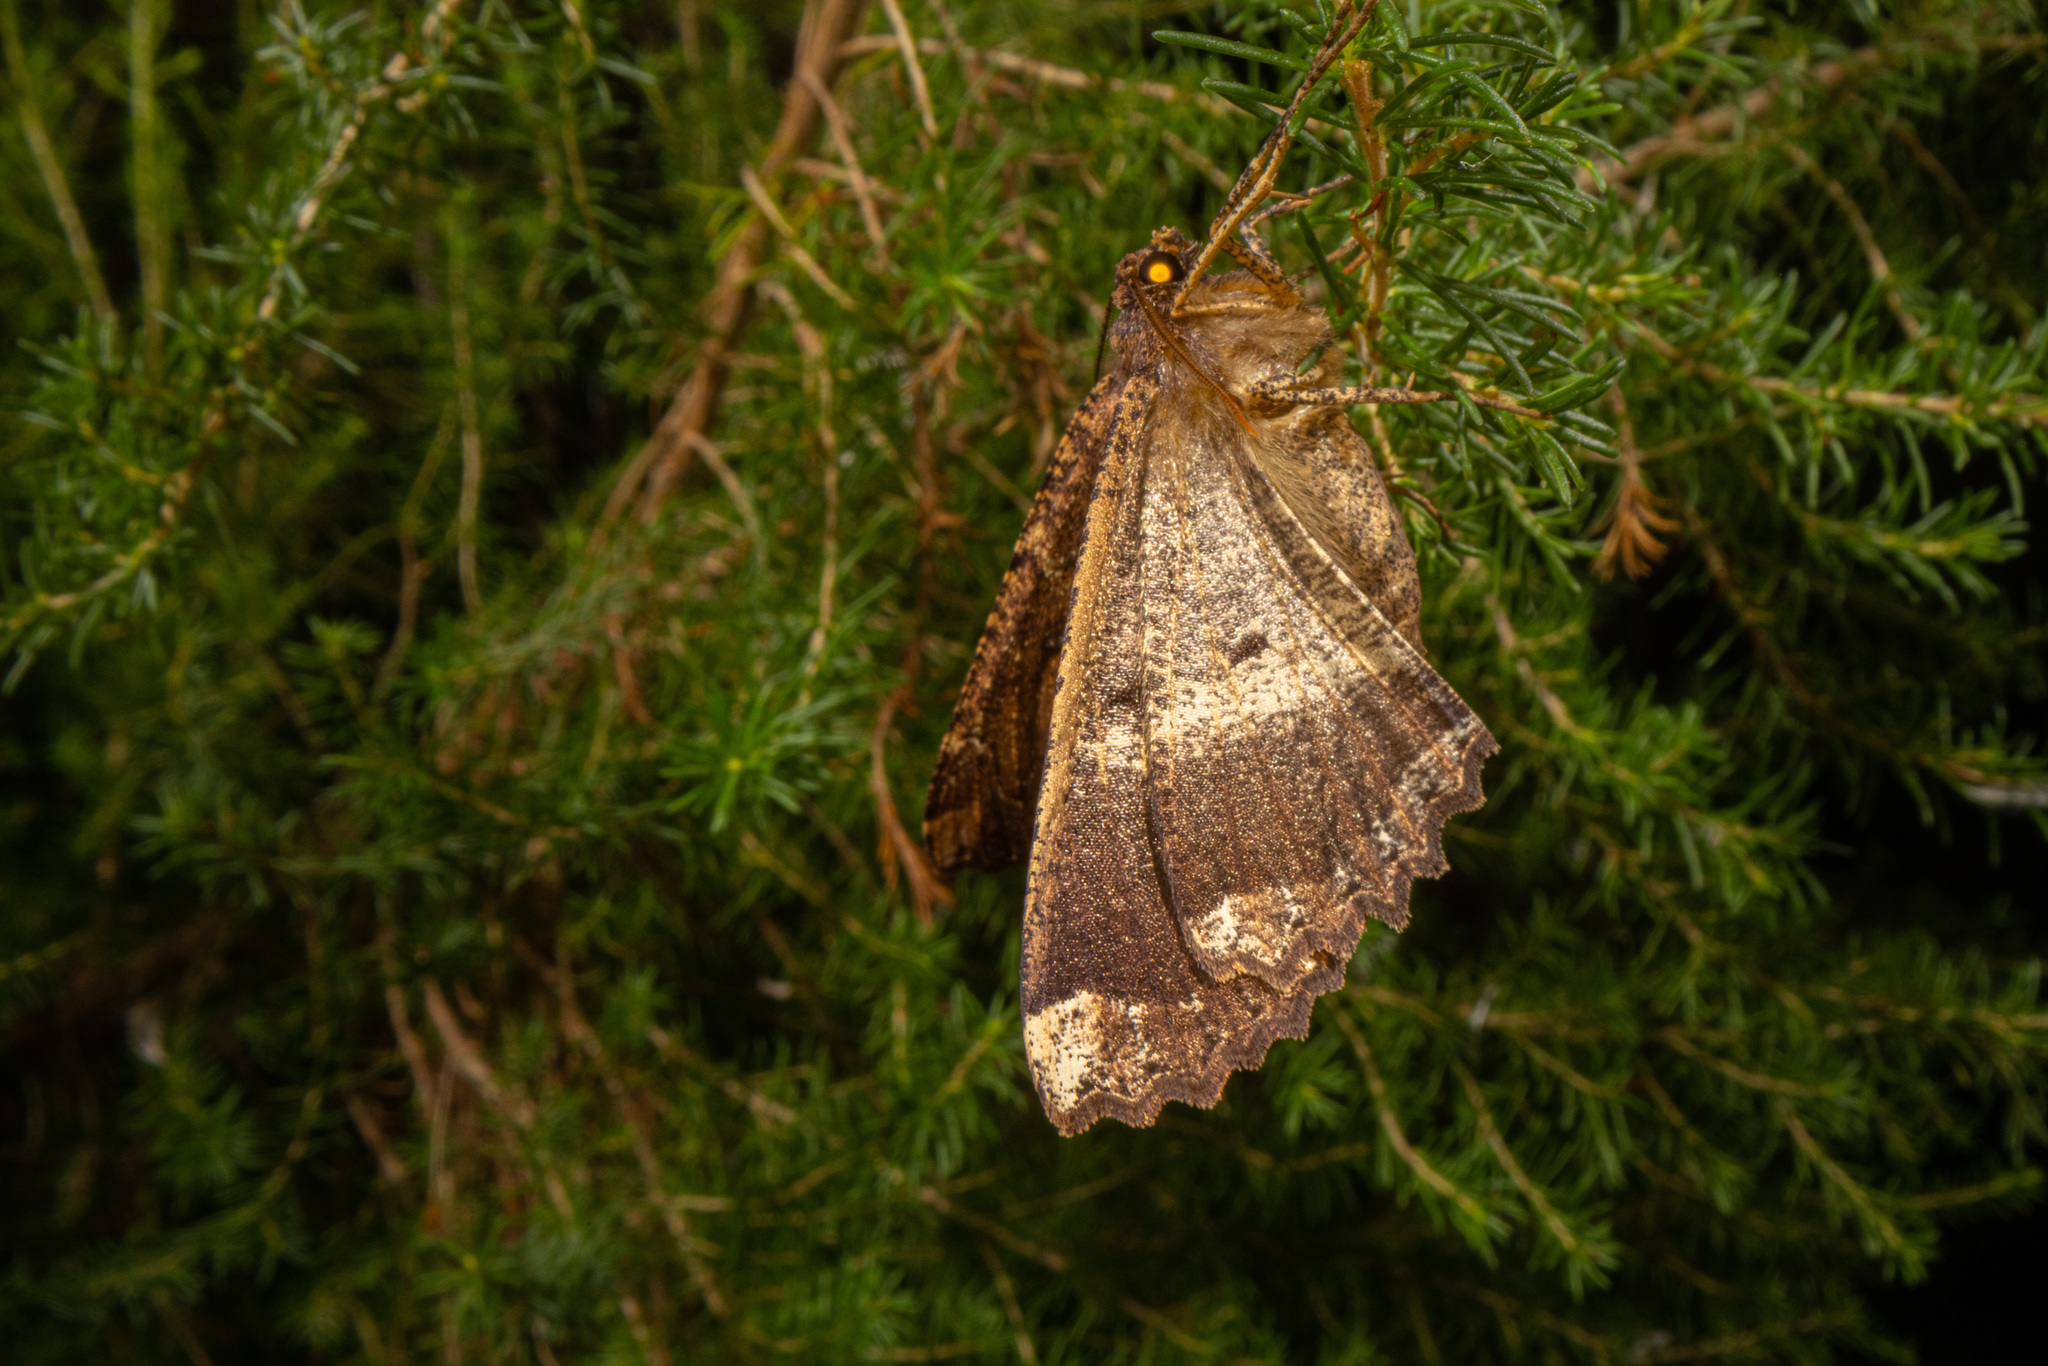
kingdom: Animalia
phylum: Arthropoda
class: Insecta
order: Lepidoptera
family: Geometridae
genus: Gellonia
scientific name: Gellonia dejectaria
